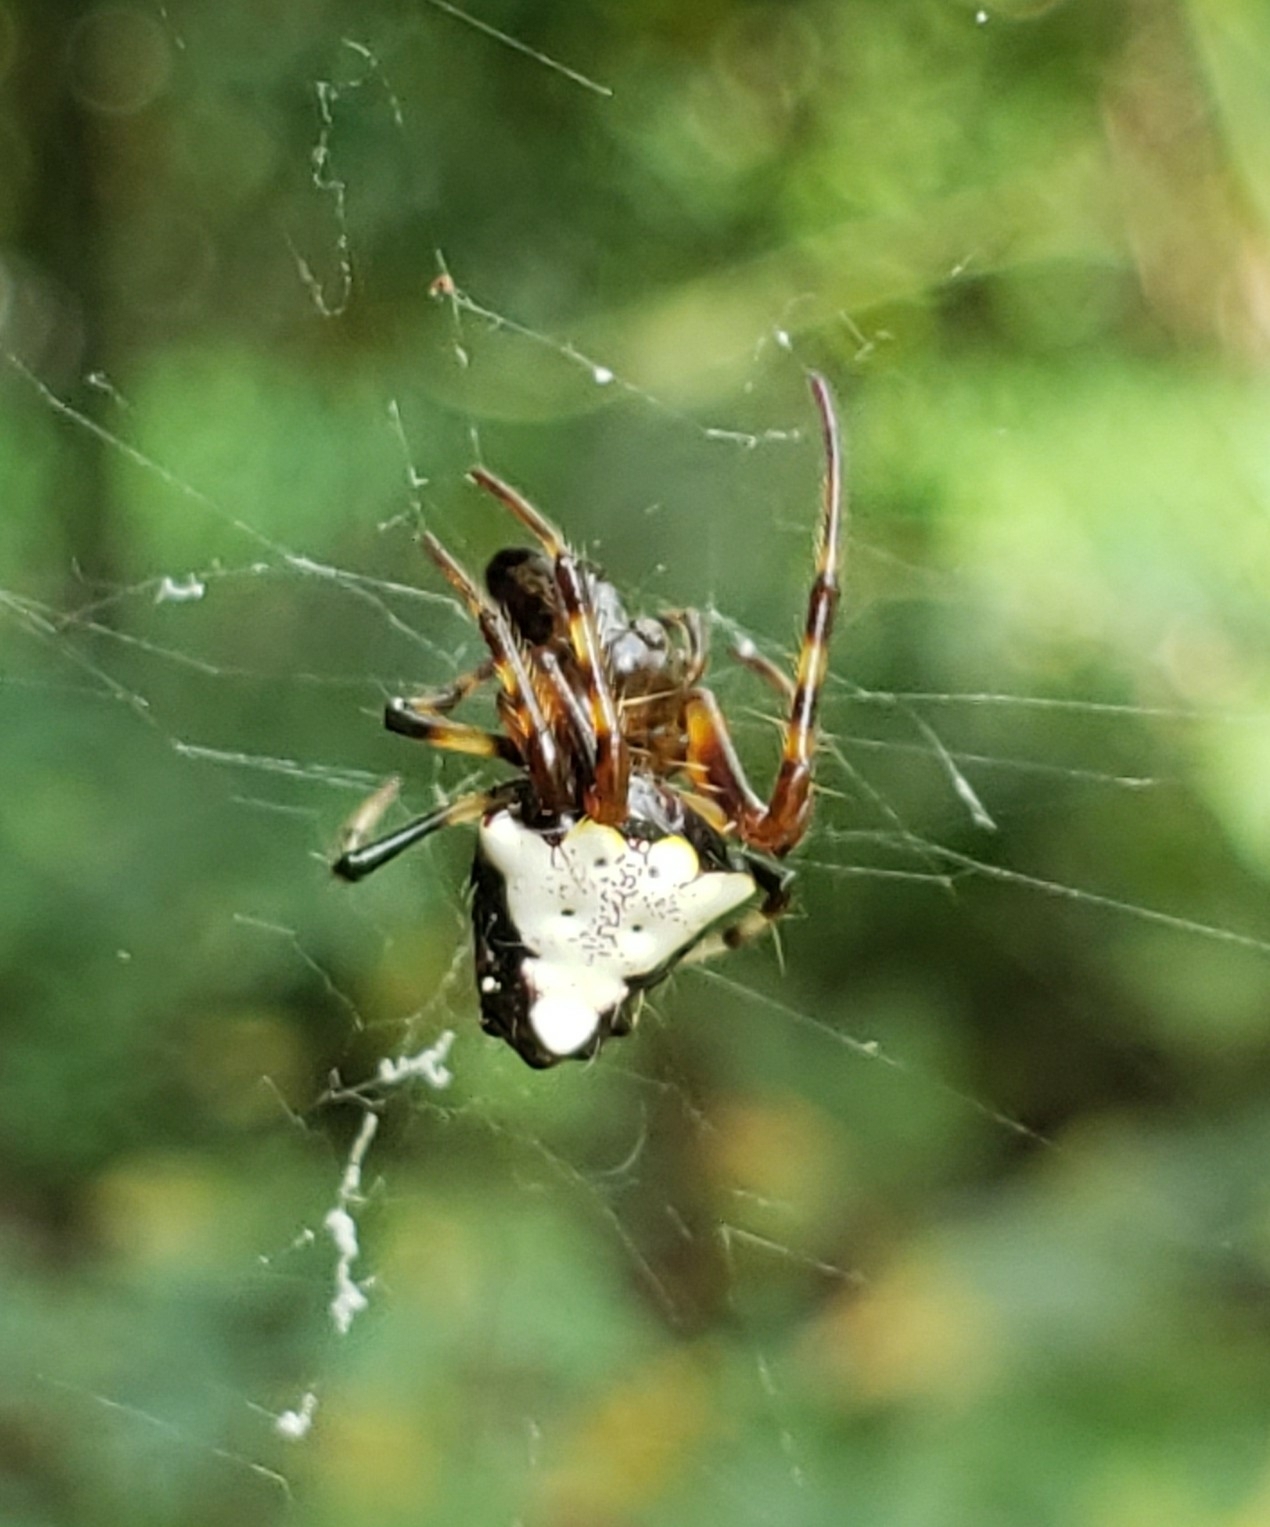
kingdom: Animalia
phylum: Arthropoda
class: Arachnida
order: Araneae
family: Araneidae
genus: Verrucosa
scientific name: Verrucosa arenata
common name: Orb weavers
